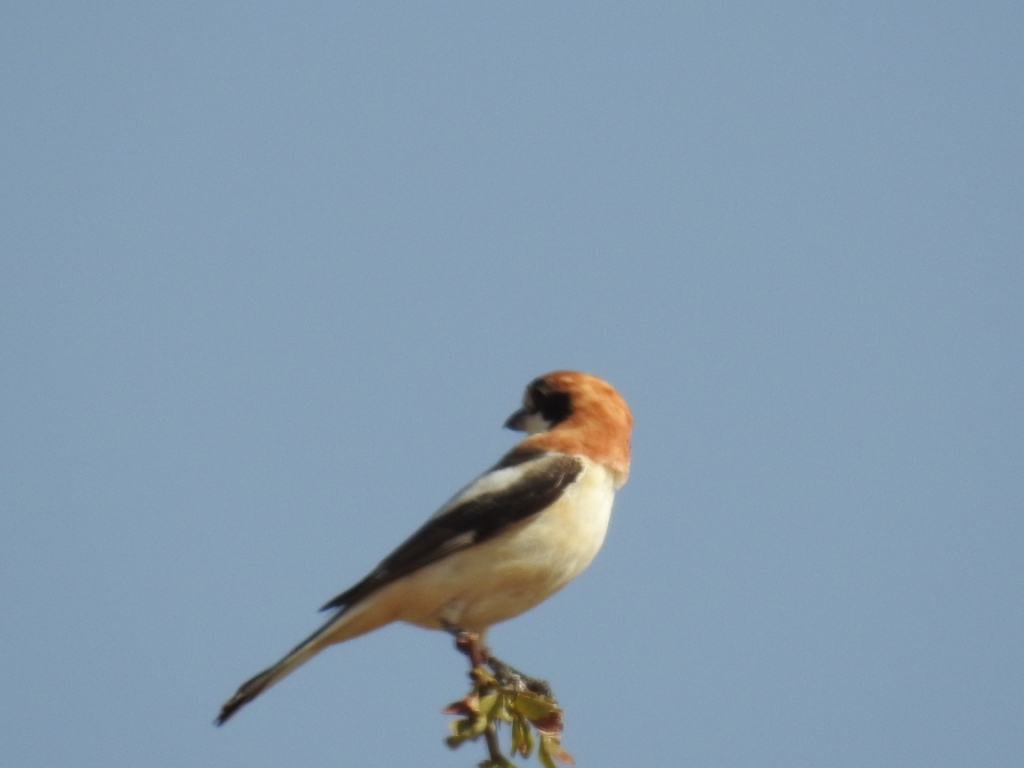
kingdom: Animalia
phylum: Chordata
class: Aves
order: Passeriformes
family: Laniidae
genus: Lanius
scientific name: Lanius senator
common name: Woodchat shrike
